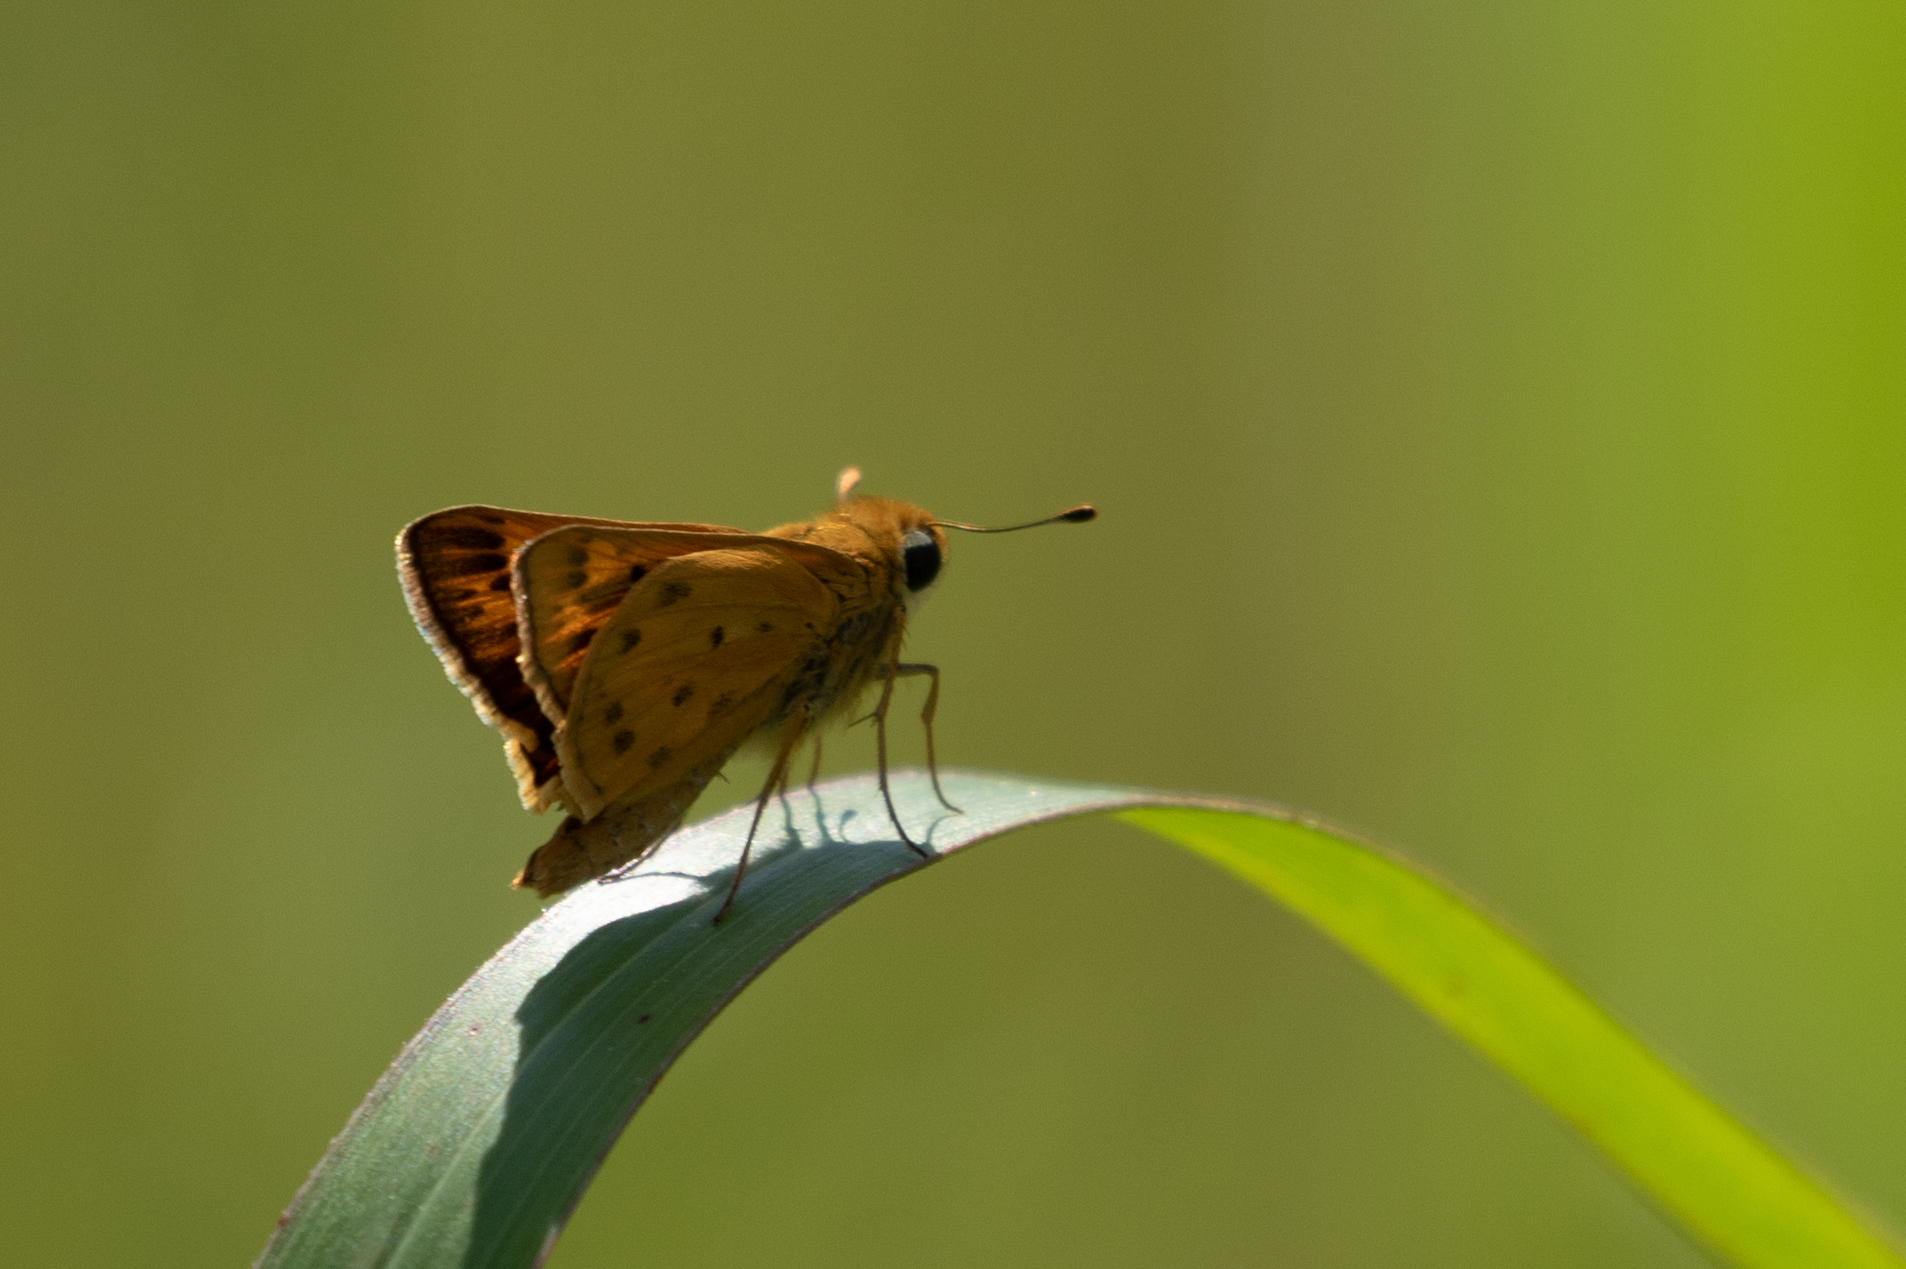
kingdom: Animalia
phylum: Arthropoda
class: Insecta
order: Lepidoptera
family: Hesperiidae
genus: Hylephila
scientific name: Hylephila phyleus
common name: Fiery skipper
